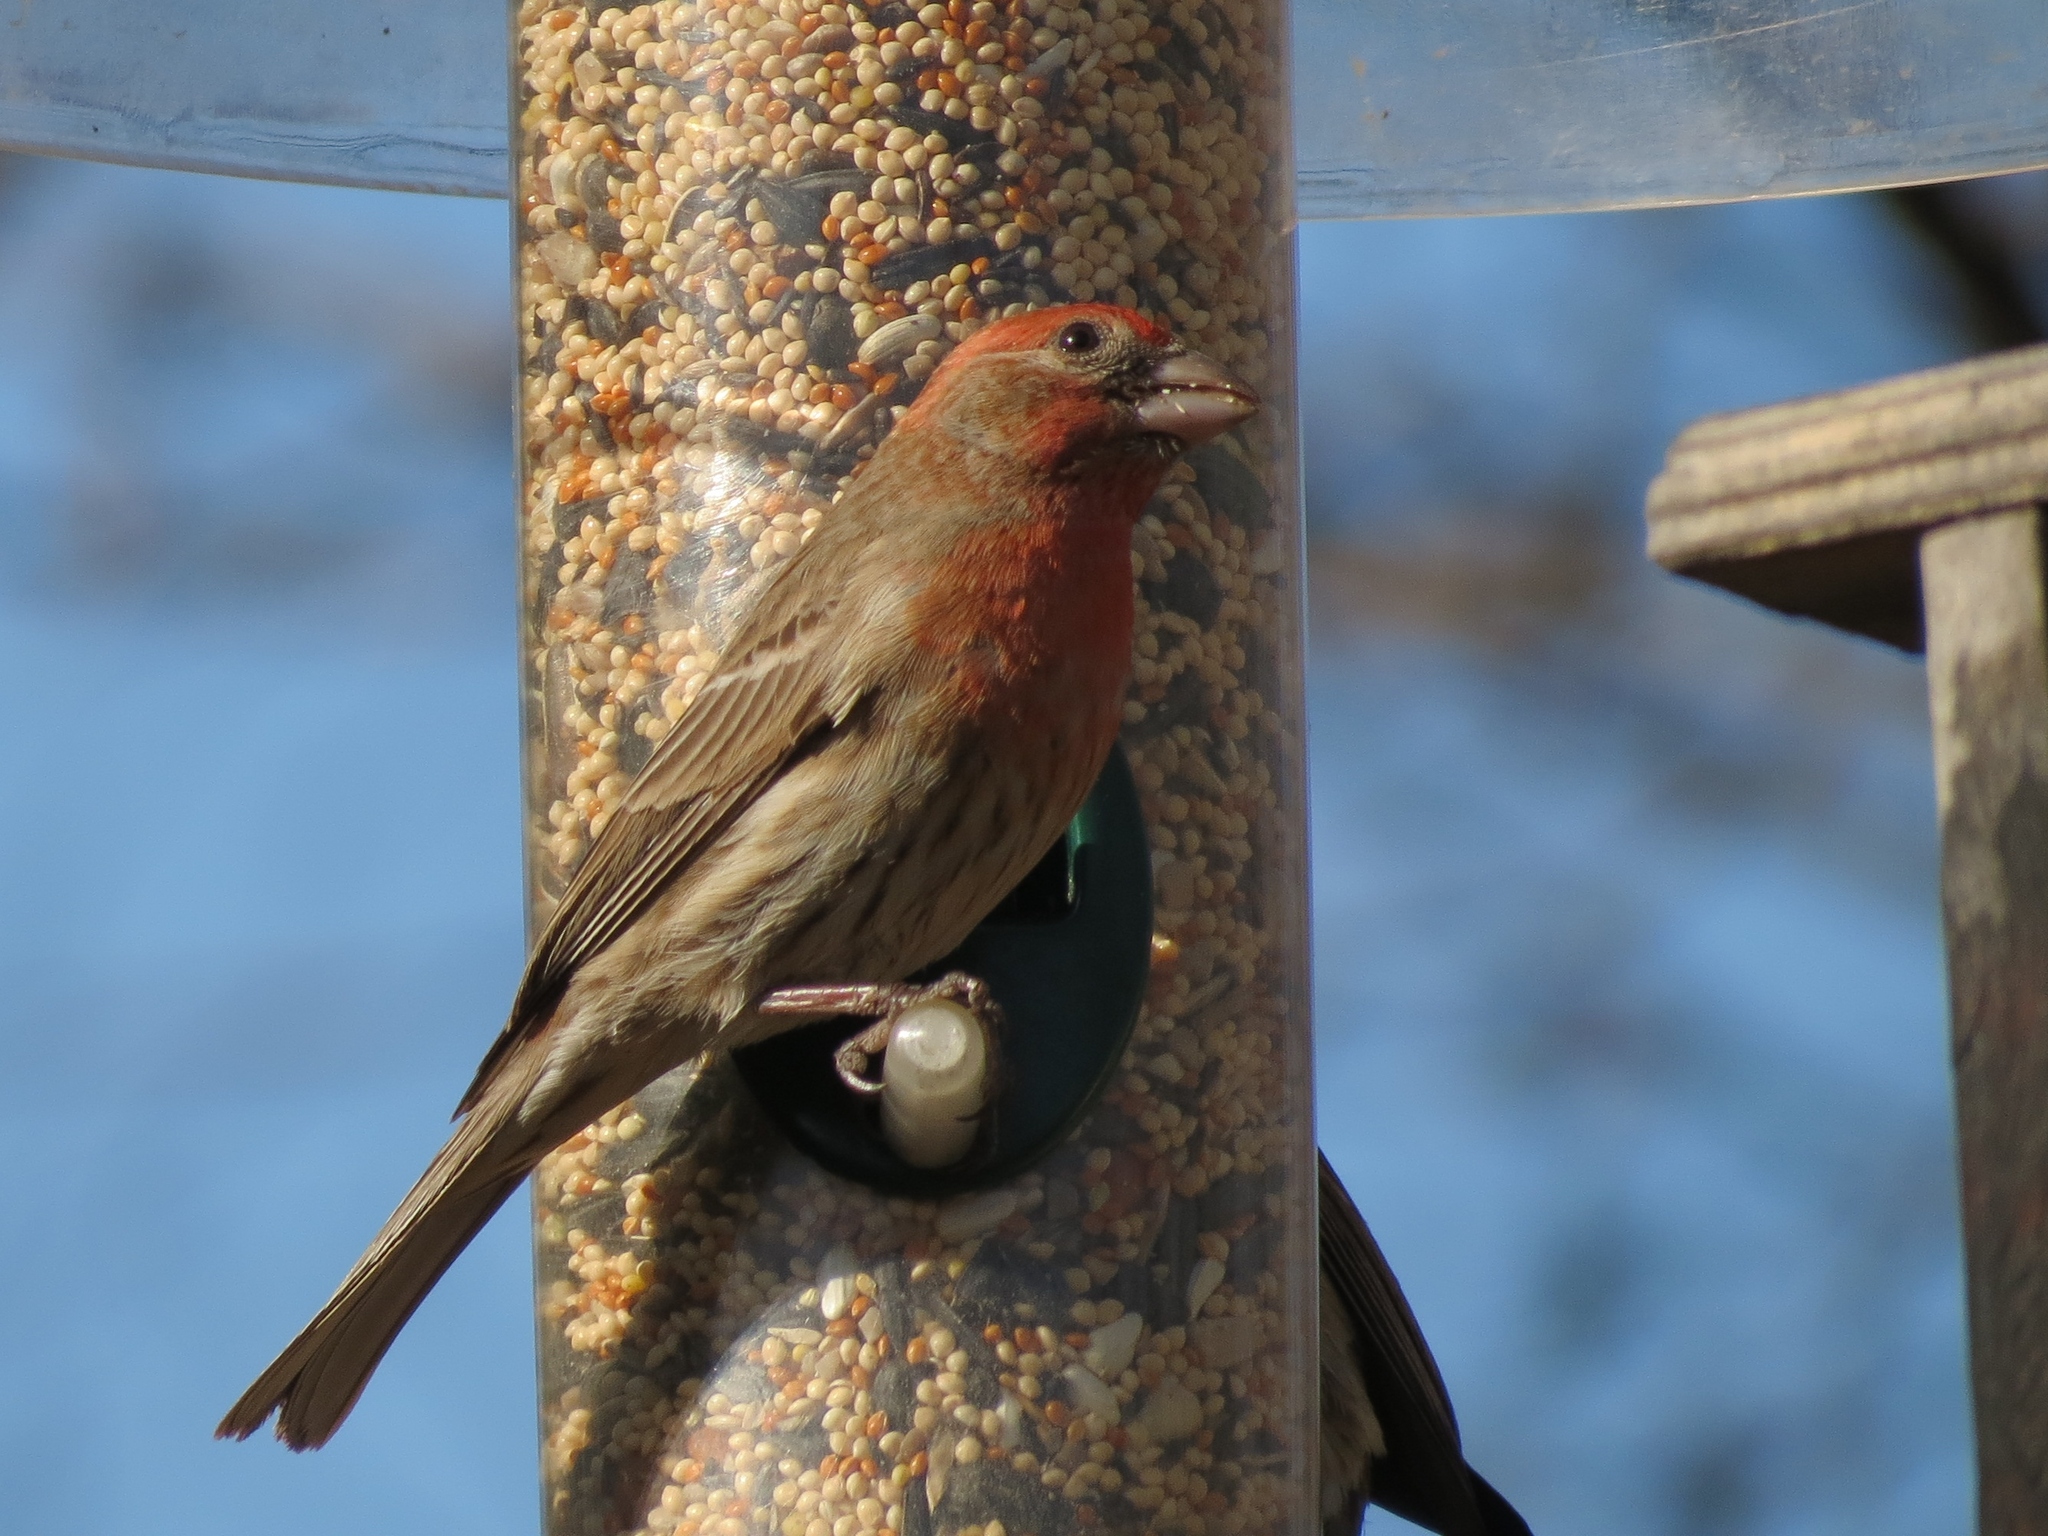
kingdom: Animalia
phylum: Chordata
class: Aves
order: Passeriformes
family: Fringillidae
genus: Haemorhous
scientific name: Haemorhous mexicanus
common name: House finch
